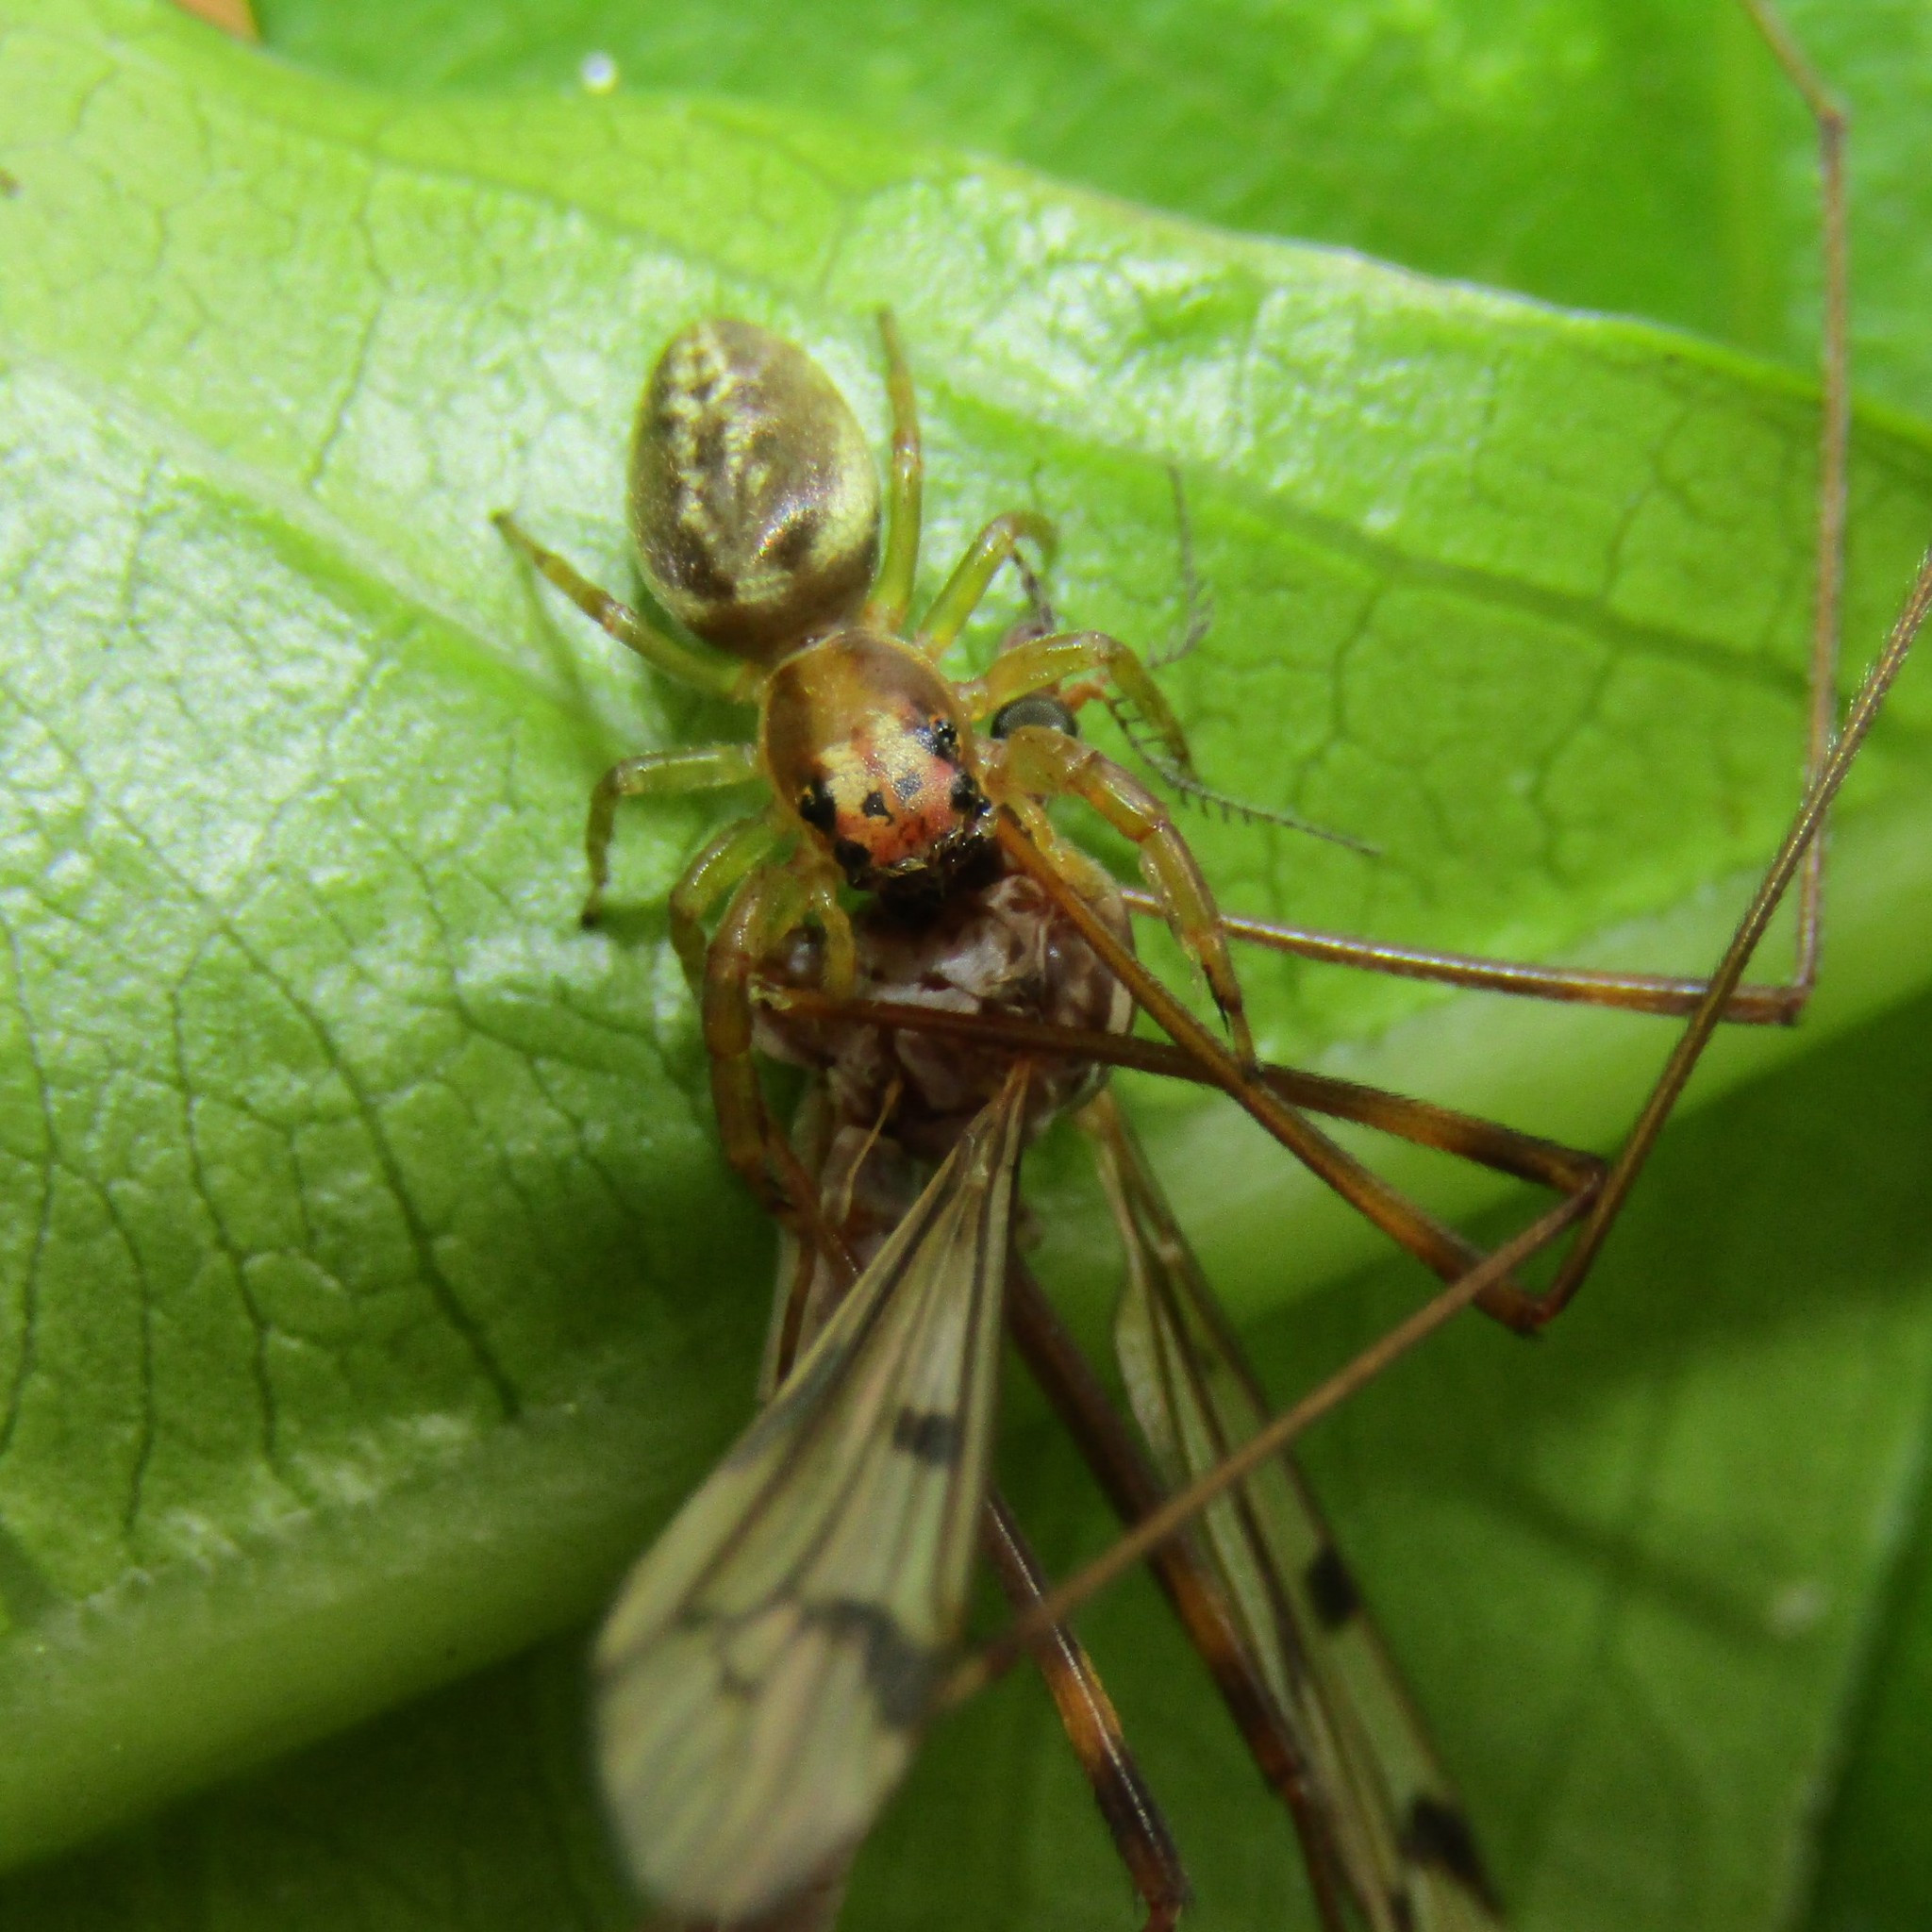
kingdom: Animalia
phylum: Arthropoda
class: Arachnida
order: Araneae
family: Salticidae
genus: Trite
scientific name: Trite mustilina
